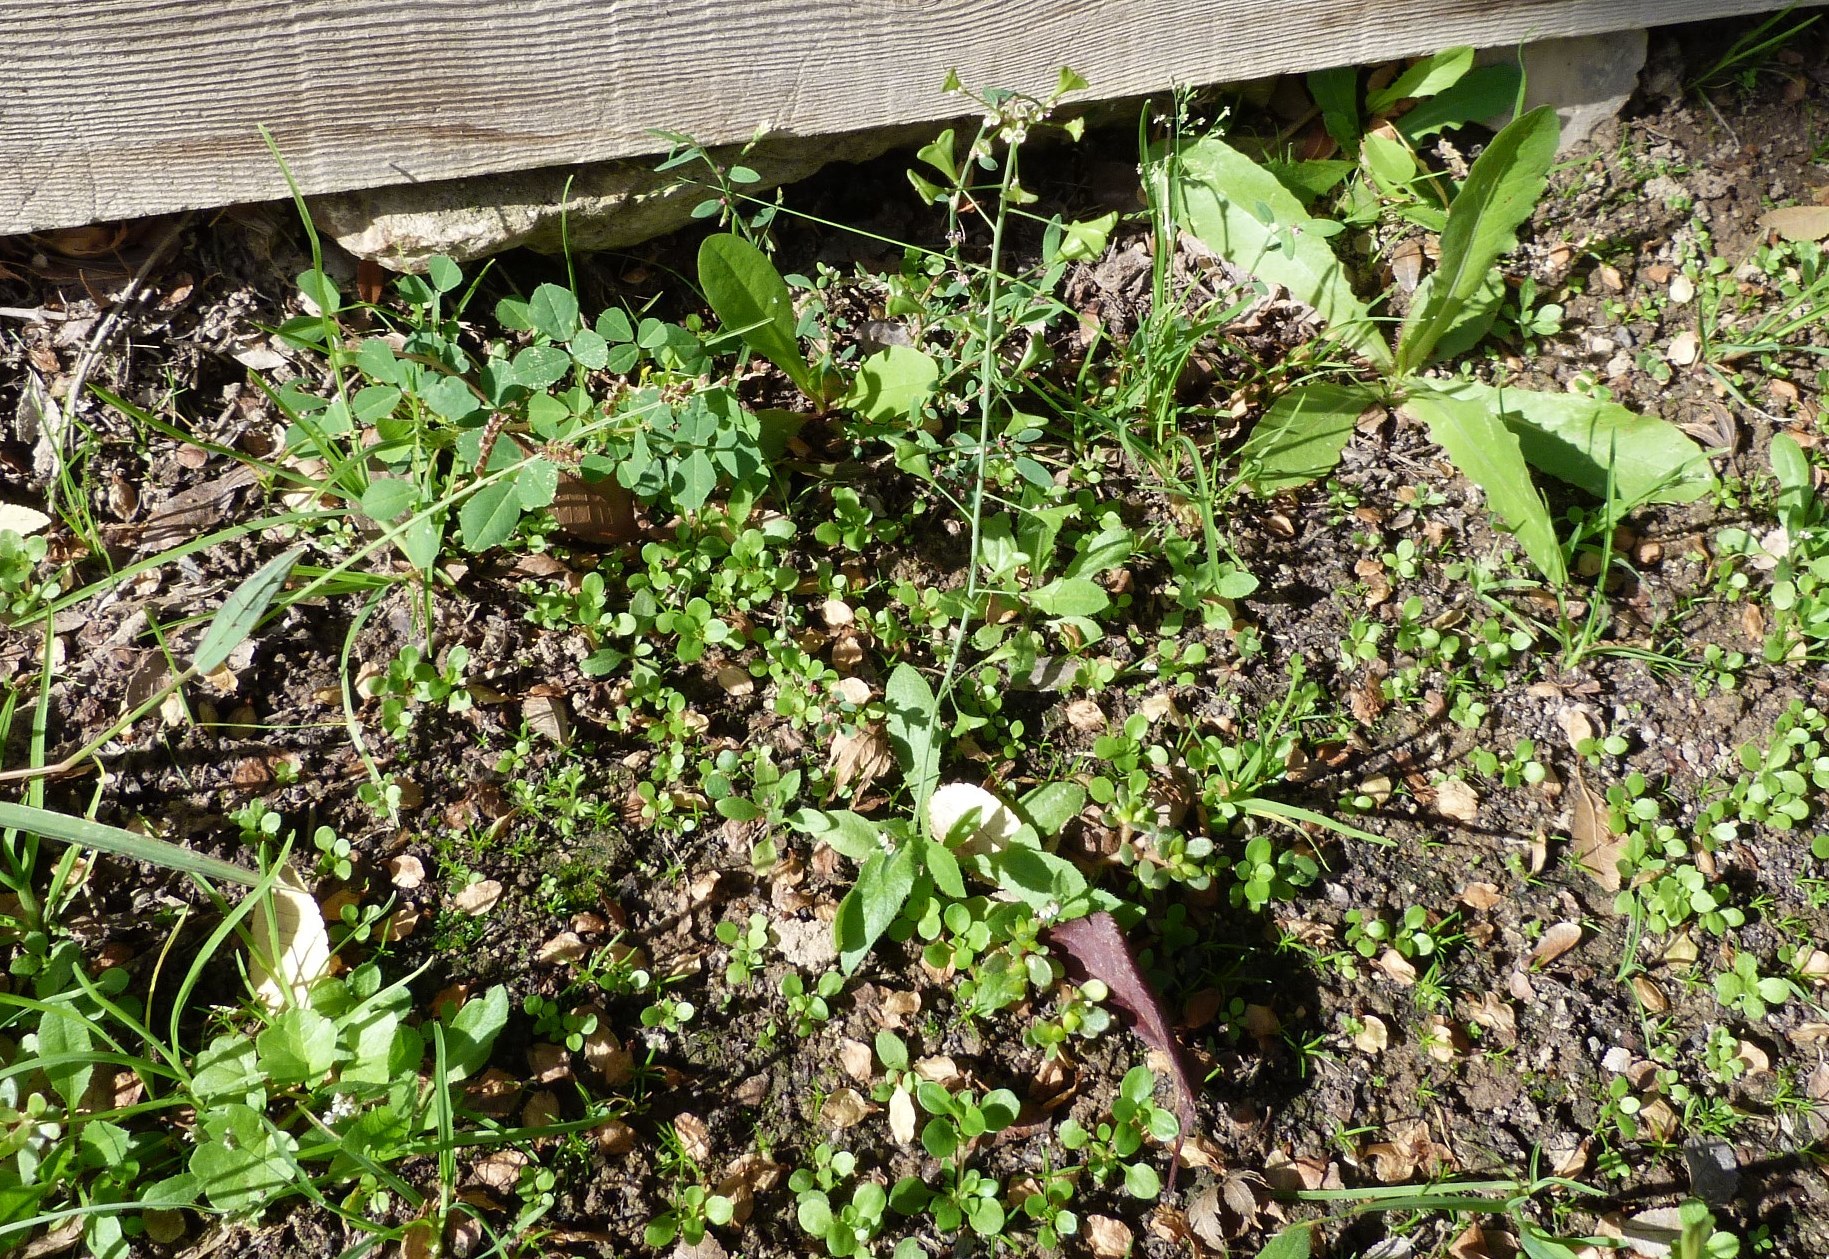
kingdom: Plantae
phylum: Tracheophyta
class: Magnoliopsida
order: Brassicales
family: Brassicaceae
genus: Capsella
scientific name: Capsella bursa-pastoris
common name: Shepherd's purse
